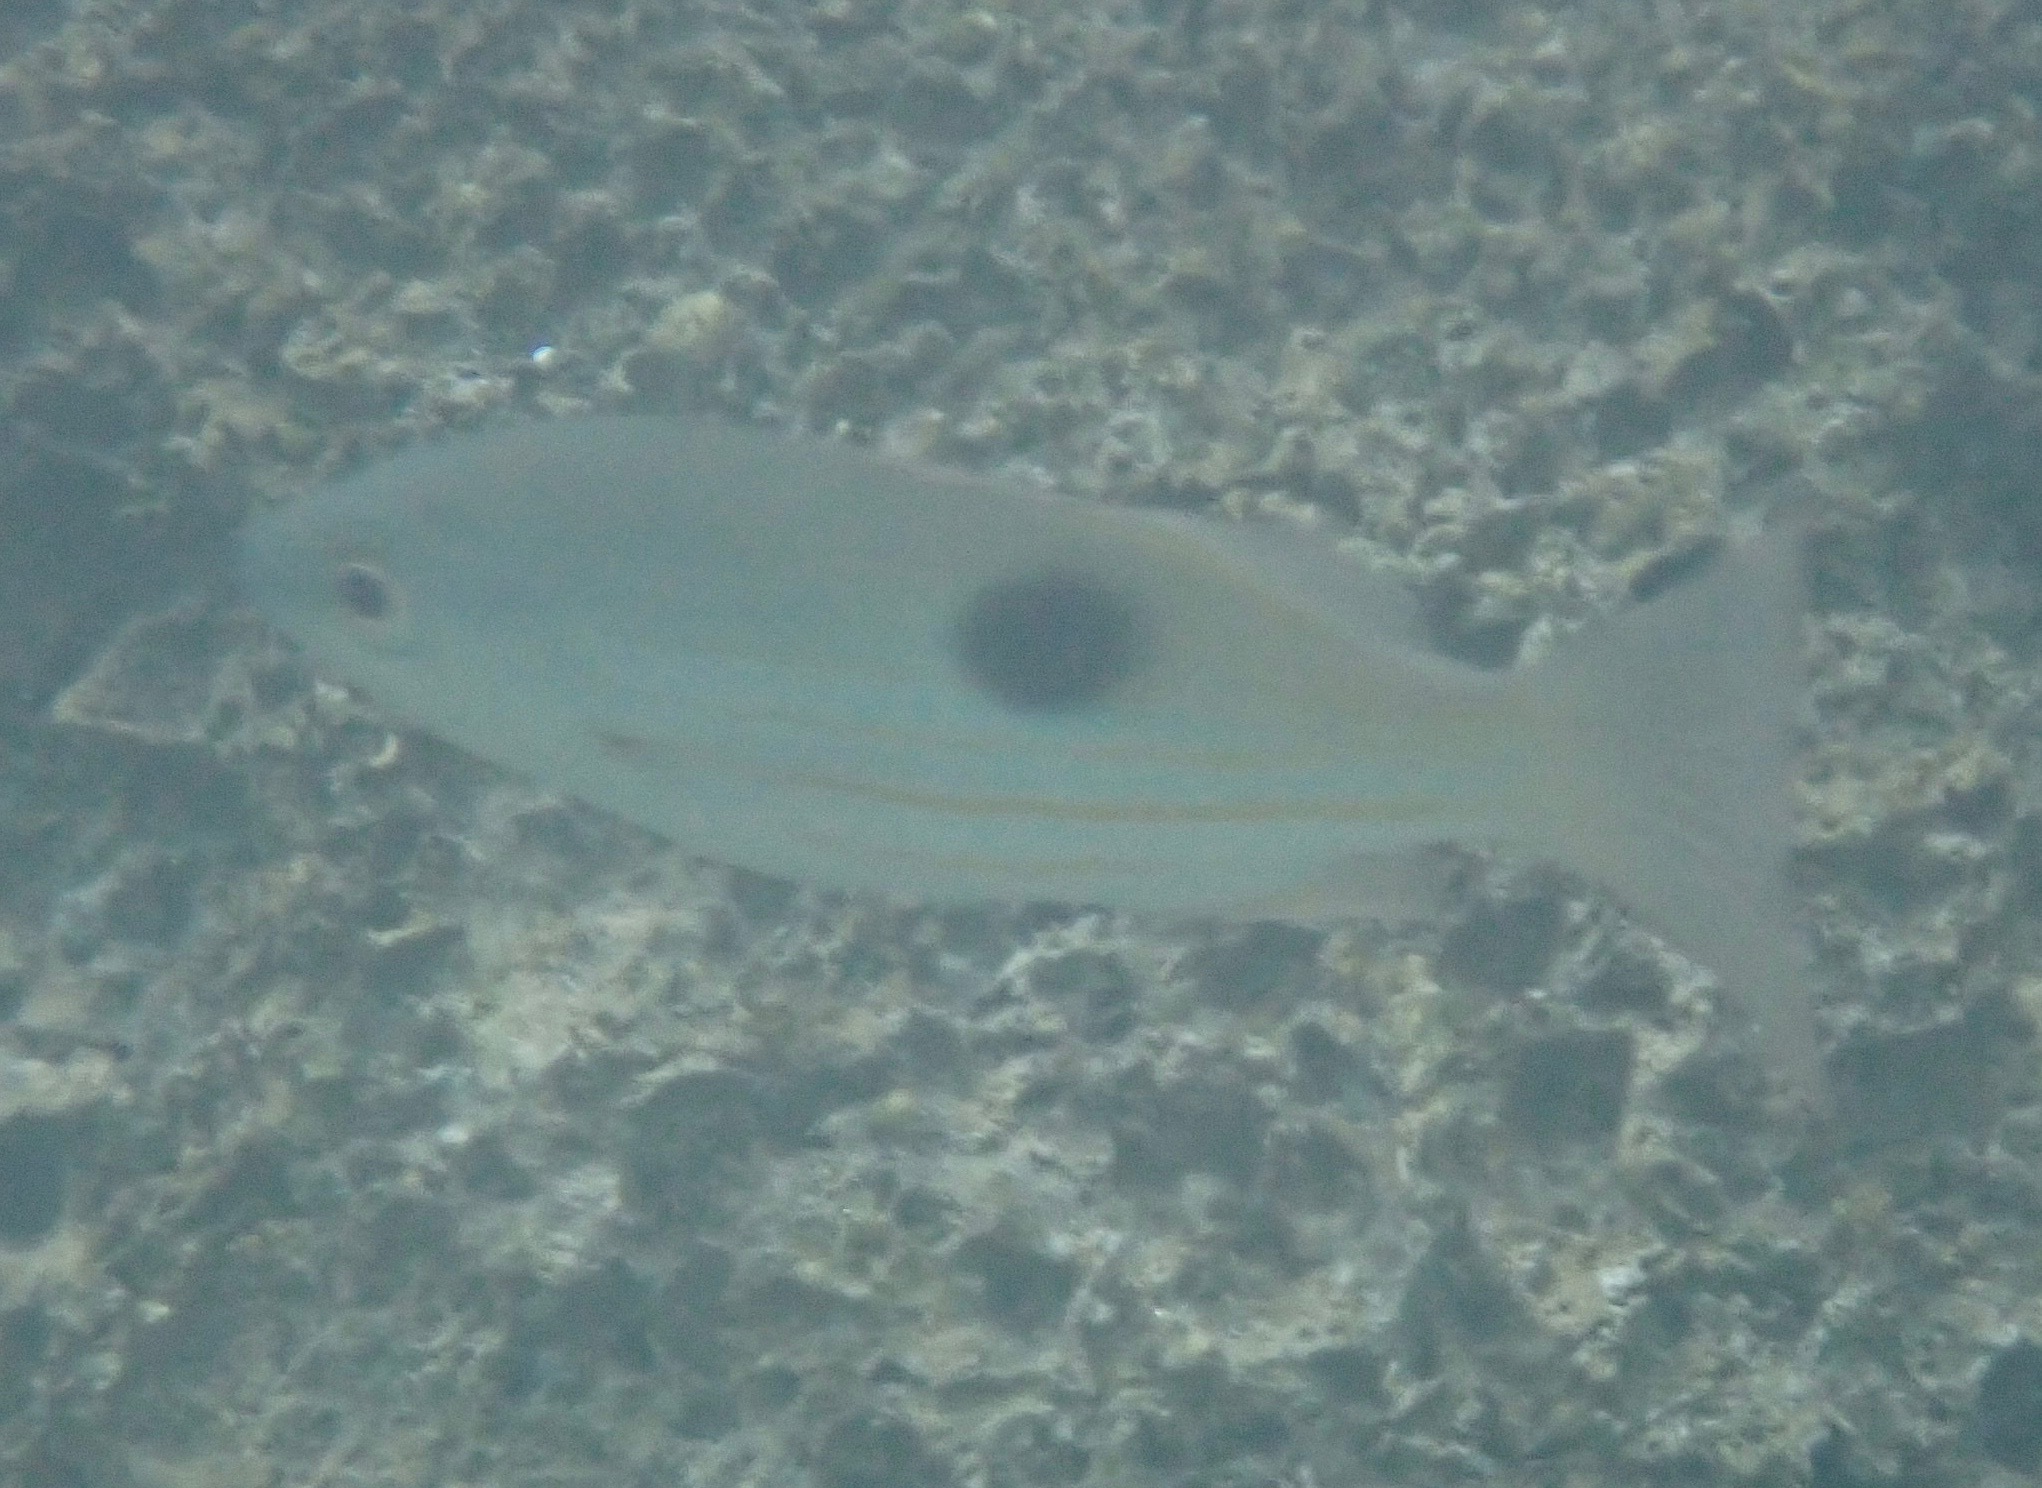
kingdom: Animalia
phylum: Chordata
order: Perciformes
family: Lutjanidae
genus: Lutjanus
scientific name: Lutjanus ehrenbergii
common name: Blackspot snapper
